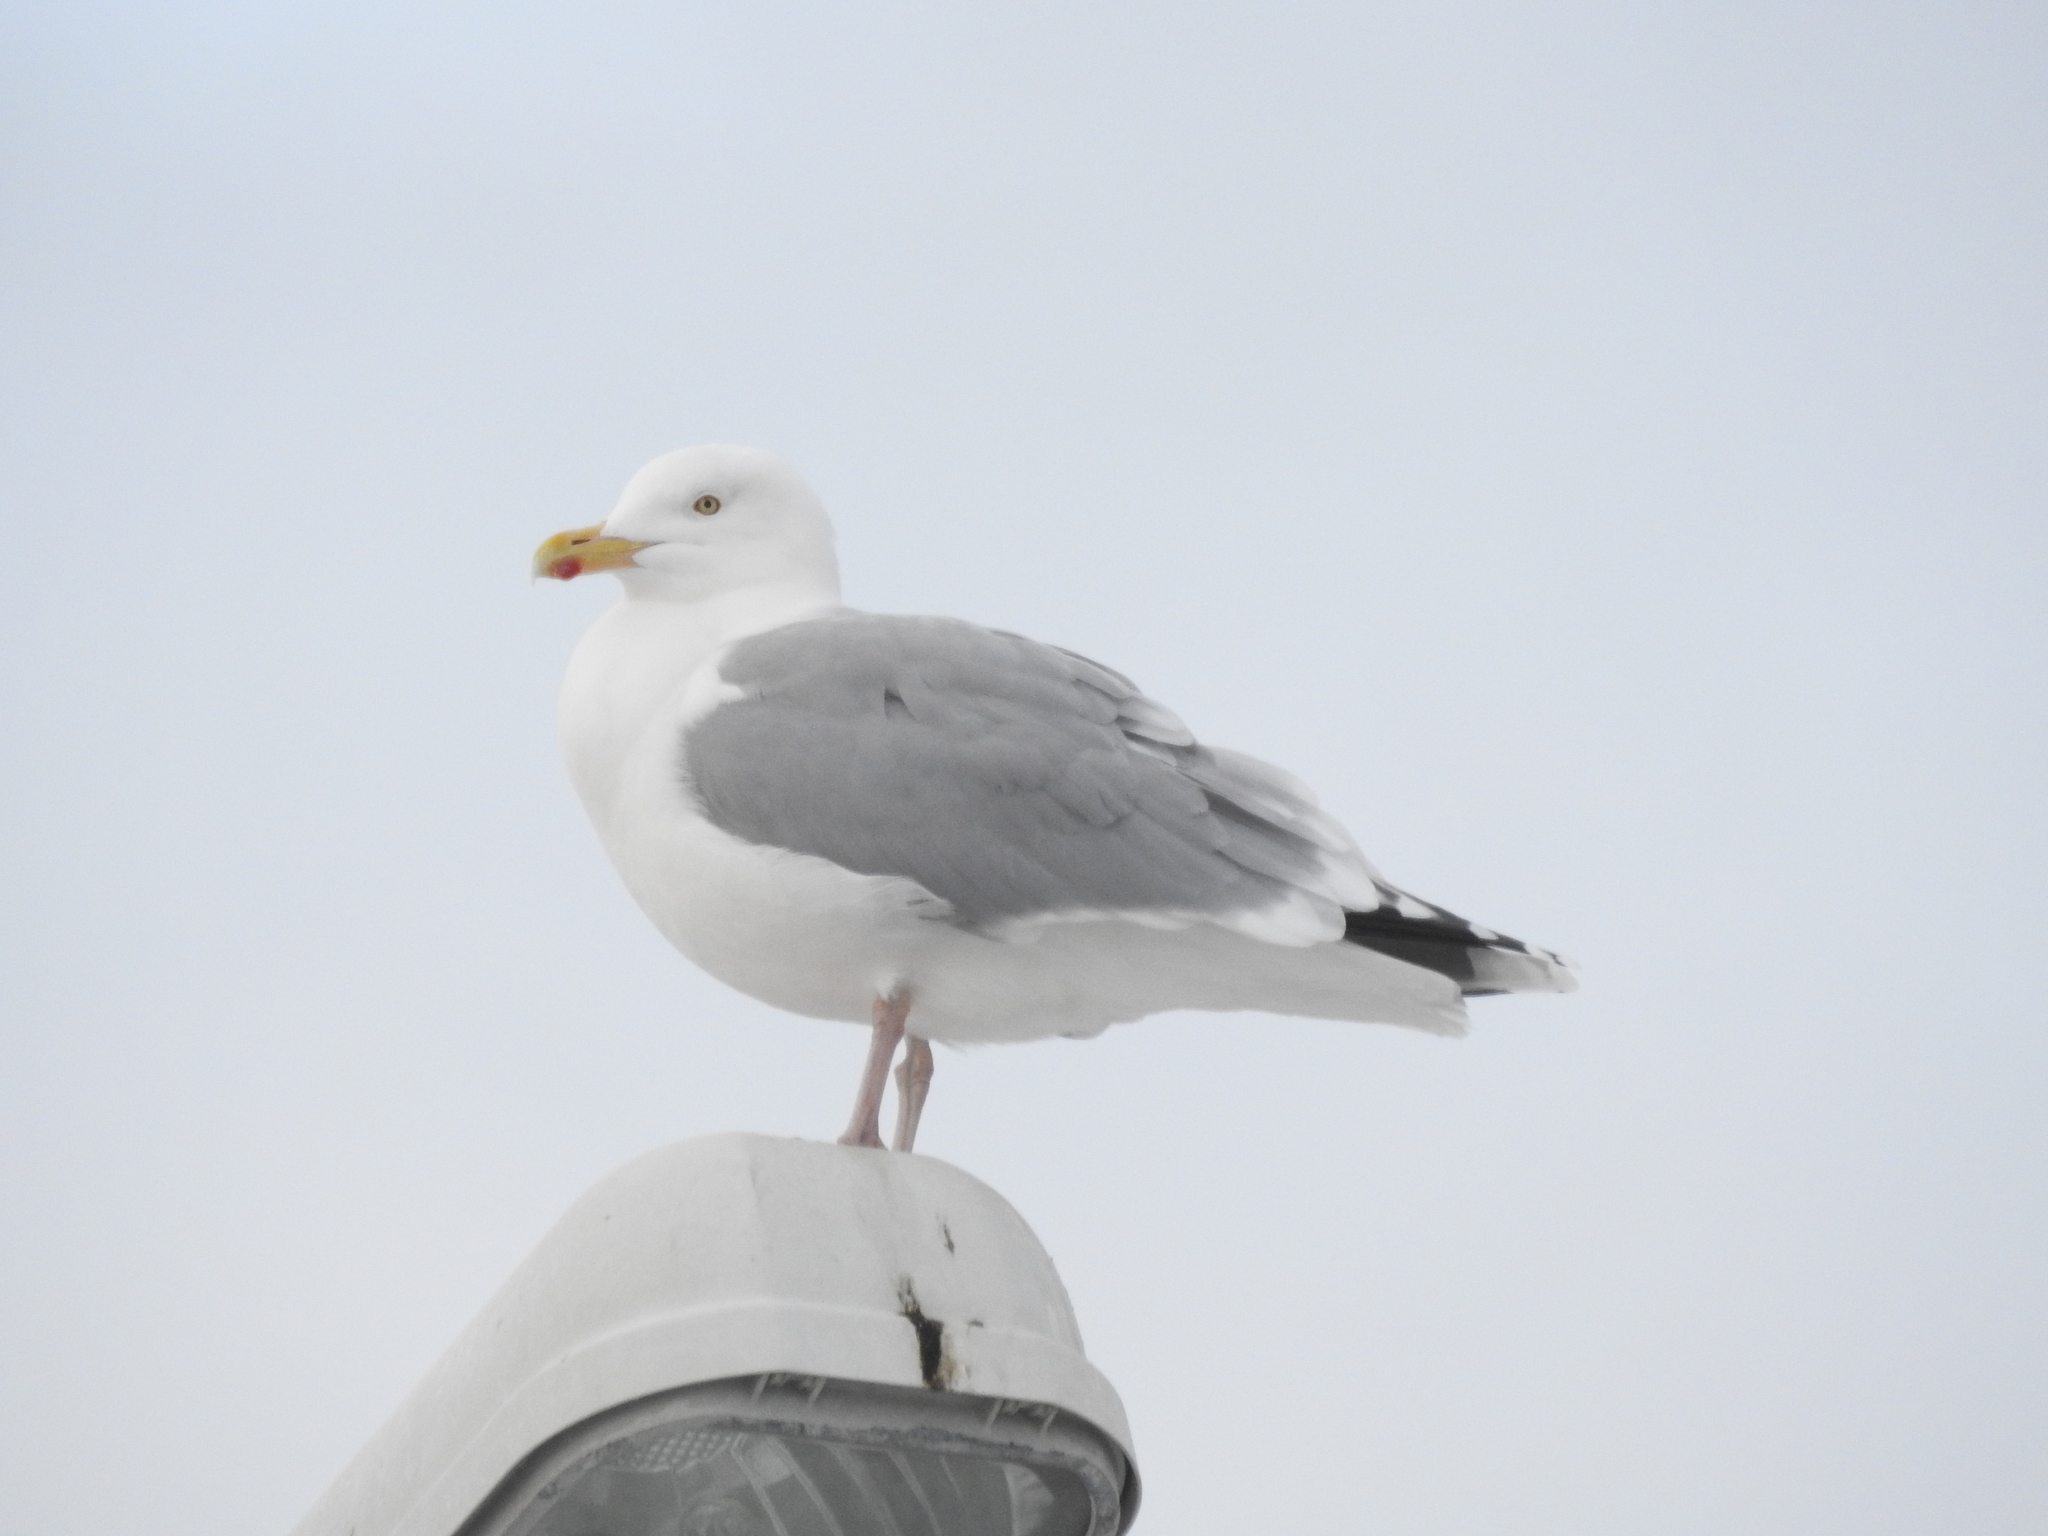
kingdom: Animalia
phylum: Chordata
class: Aves
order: Charadriiformes
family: Laridae
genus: Larus
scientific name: Larus argentatus
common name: Herring gull
